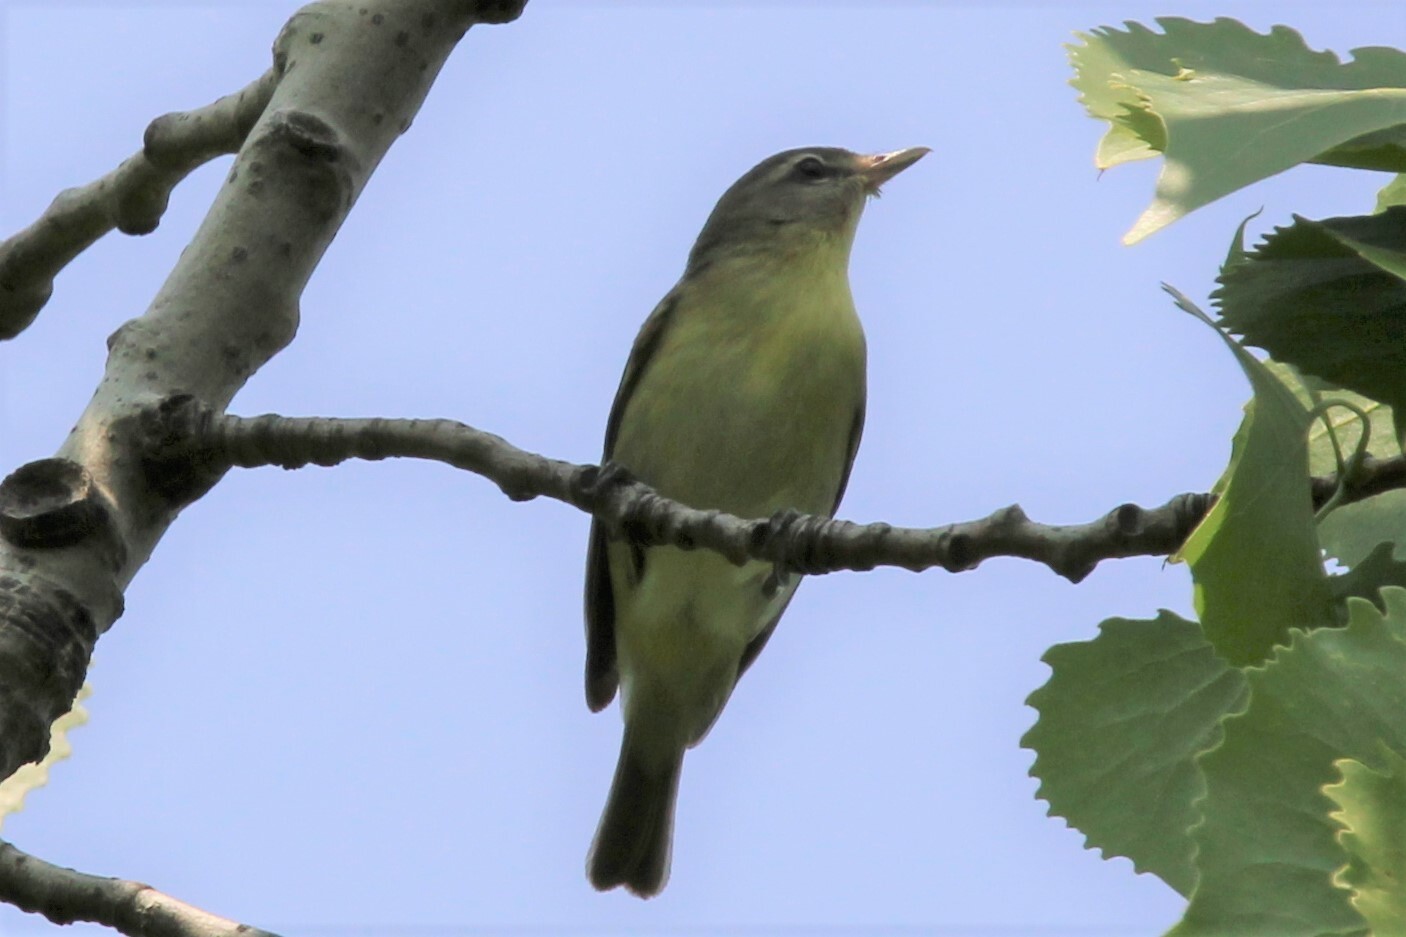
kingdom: Animalia
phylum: Chordata
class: Aves
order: Passeriformes
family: Vireonidae
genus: Vireo
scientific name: Vireo philadelphicus
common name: Philadelphia vireo
